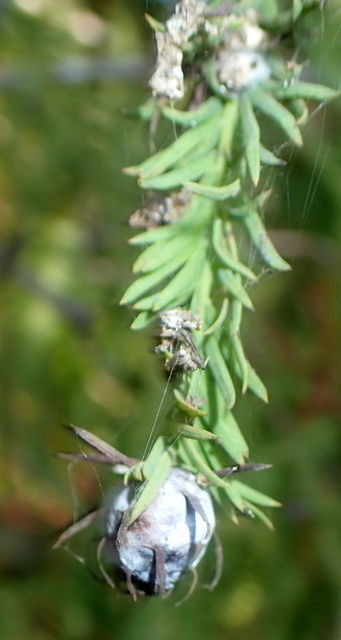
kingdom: Animalia
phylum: Arthropoda
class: Insecta
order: Diptera
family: Cecidomyiidae
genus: Taxodiomyia
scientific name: Taxodiomyia cupressiananassa
